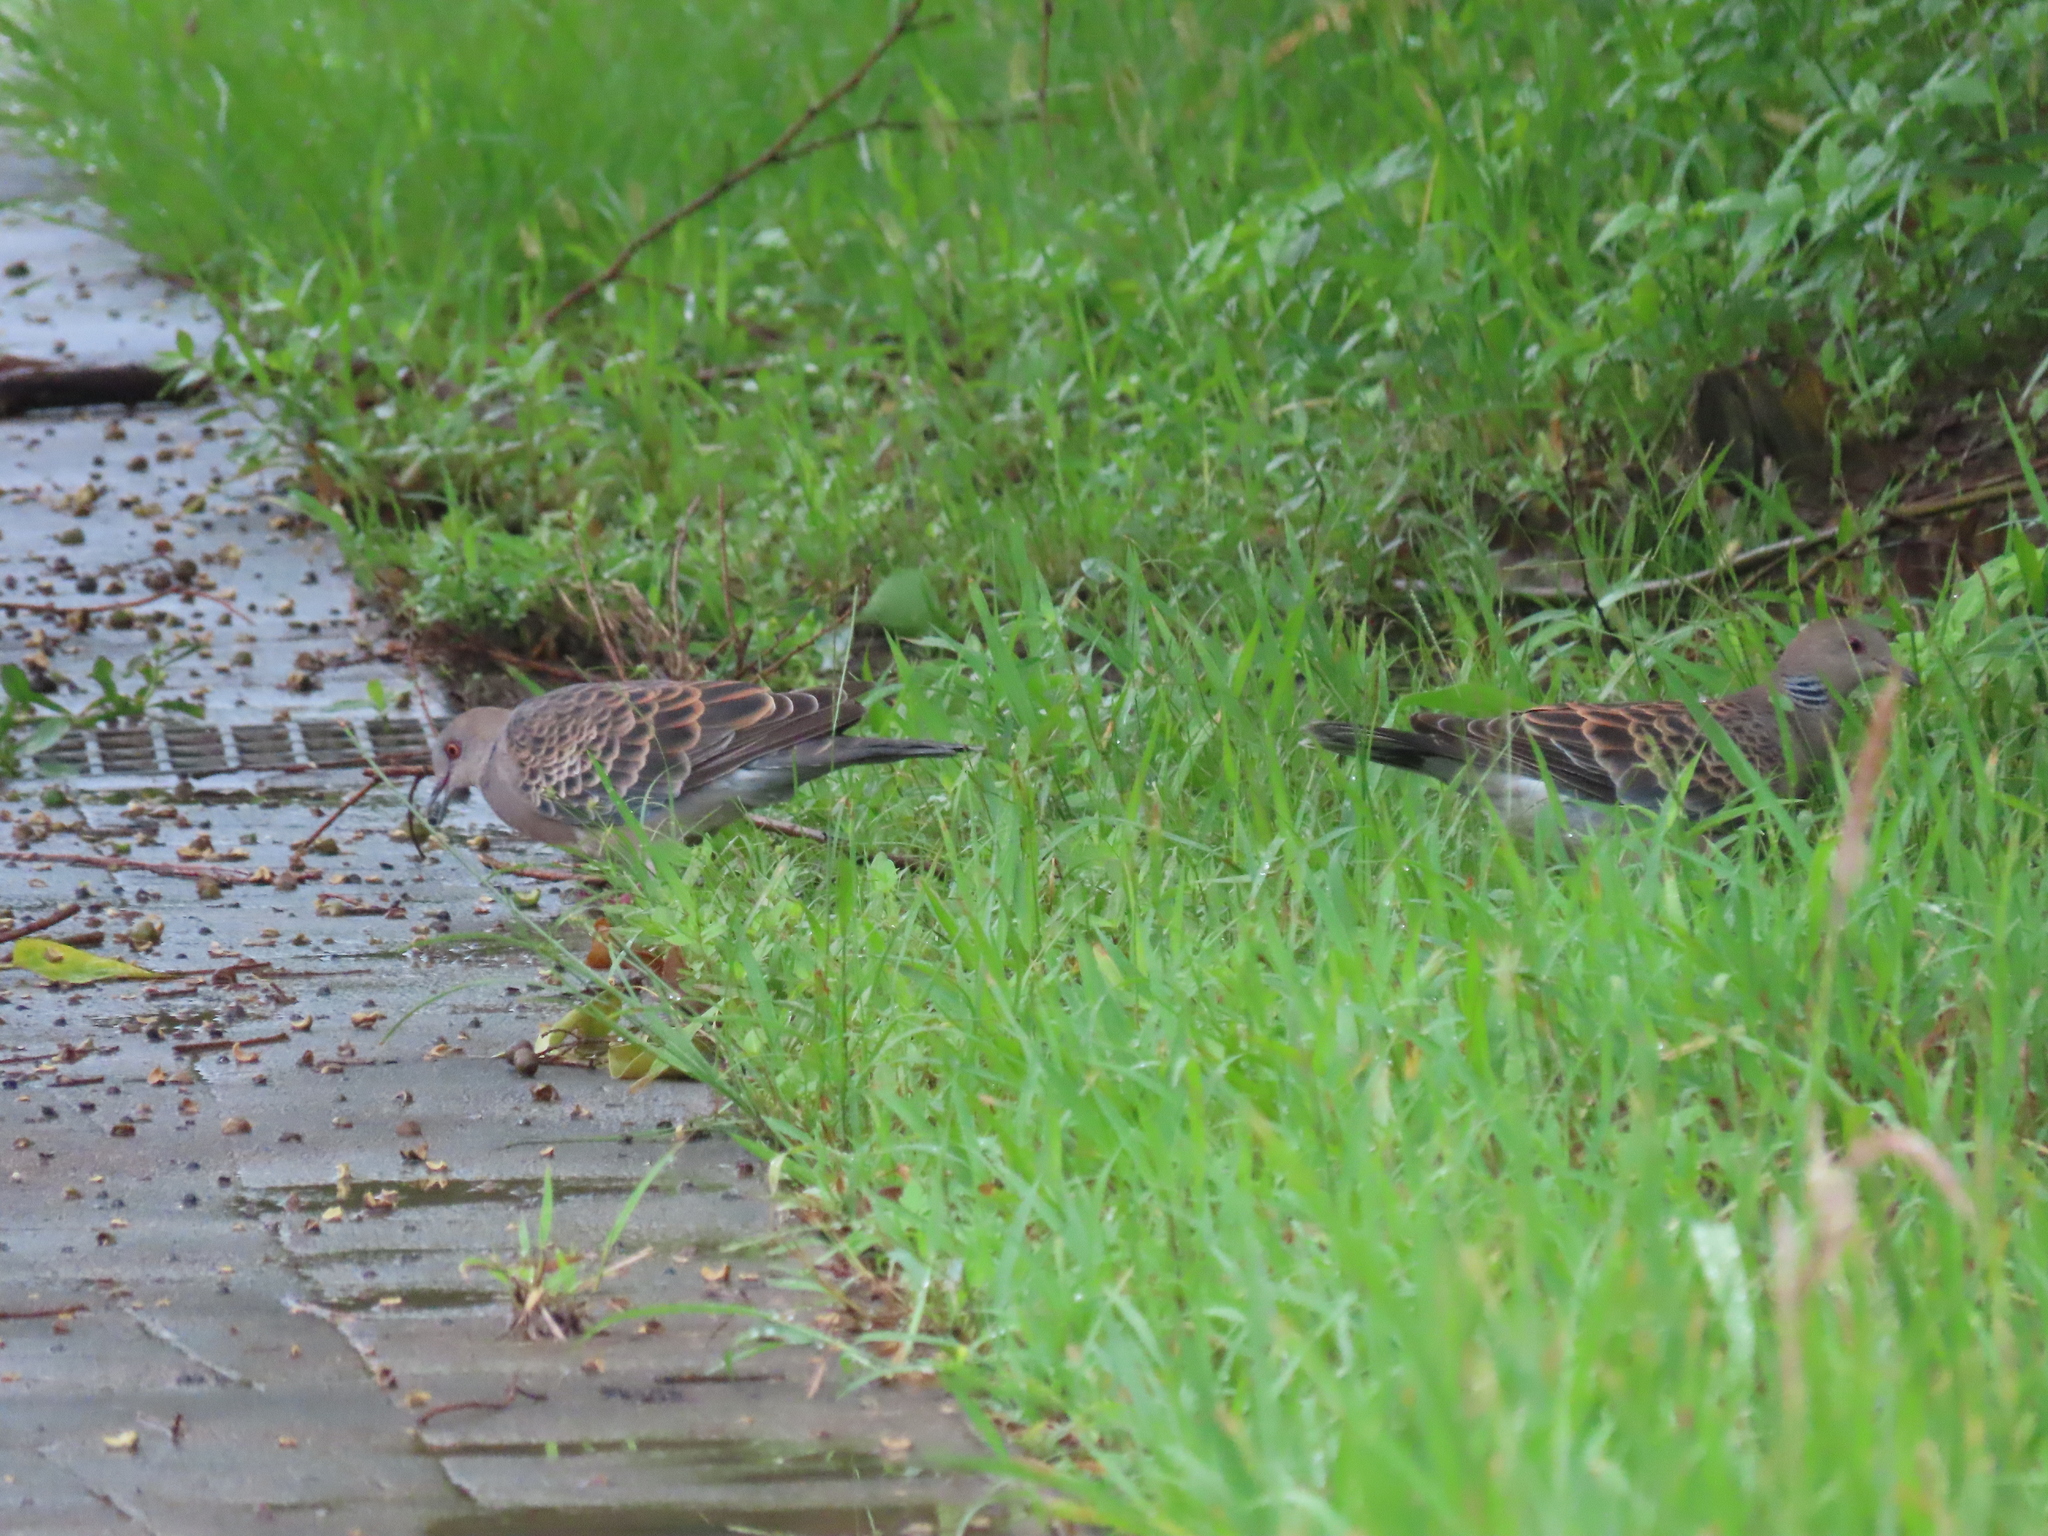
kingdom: Animalia
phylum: Chordata
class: Aves
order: Columbiformes
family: Columbidae
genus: Streptopelia
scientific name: Streptopelia orientalis
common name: Oriental turtle dove
